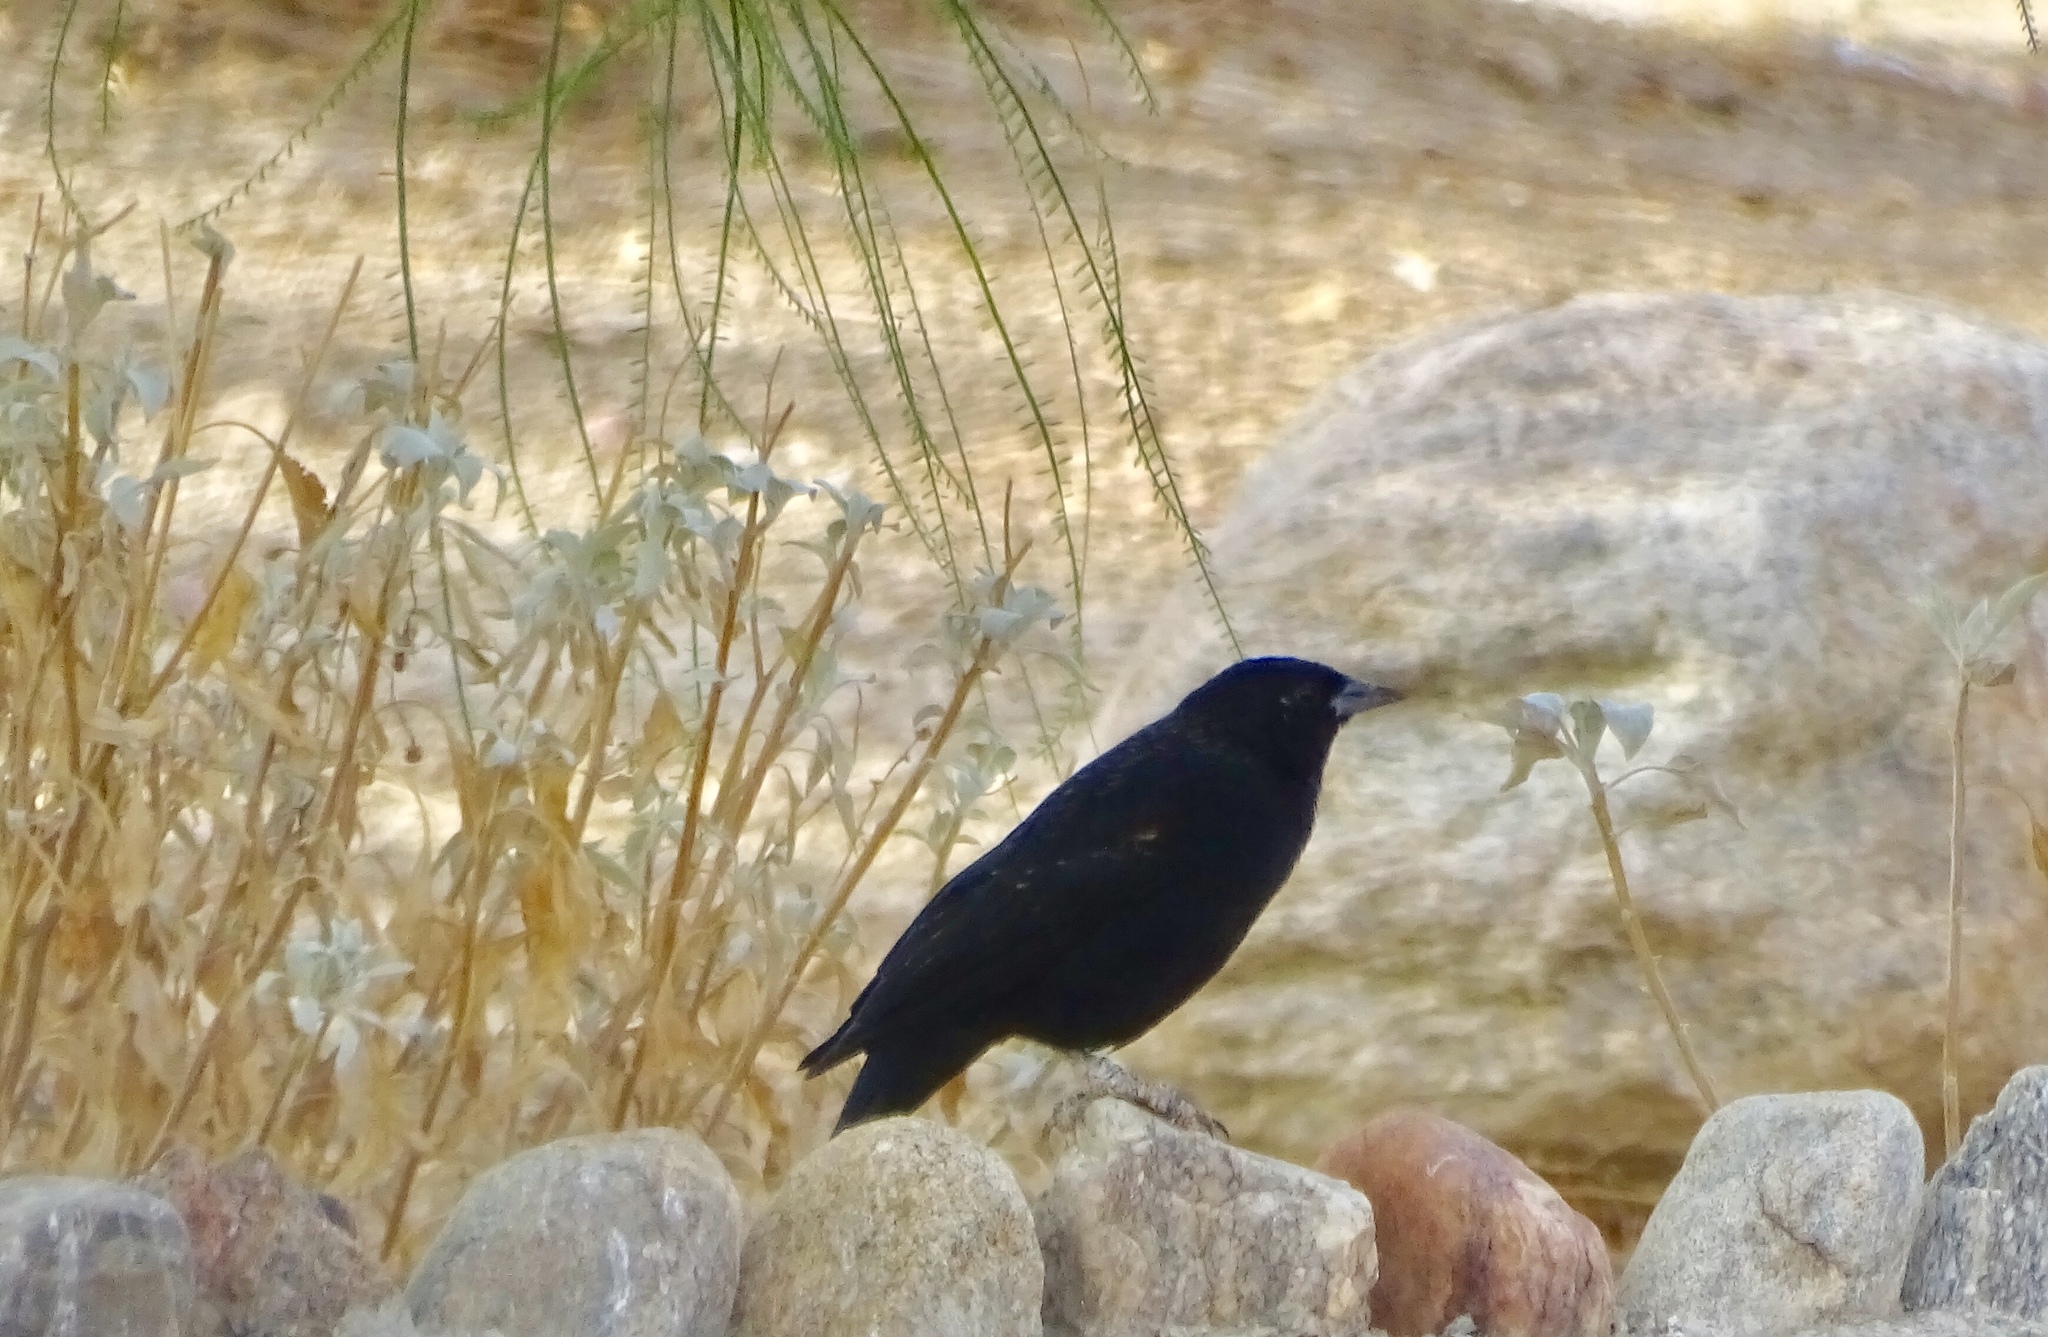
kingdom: Animalia
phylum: Chordata
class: Aves
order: Passeriformes
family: Icteridae
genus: Agelaius
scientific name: Agelaius phoeniceus
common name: Red-winged blackbird
